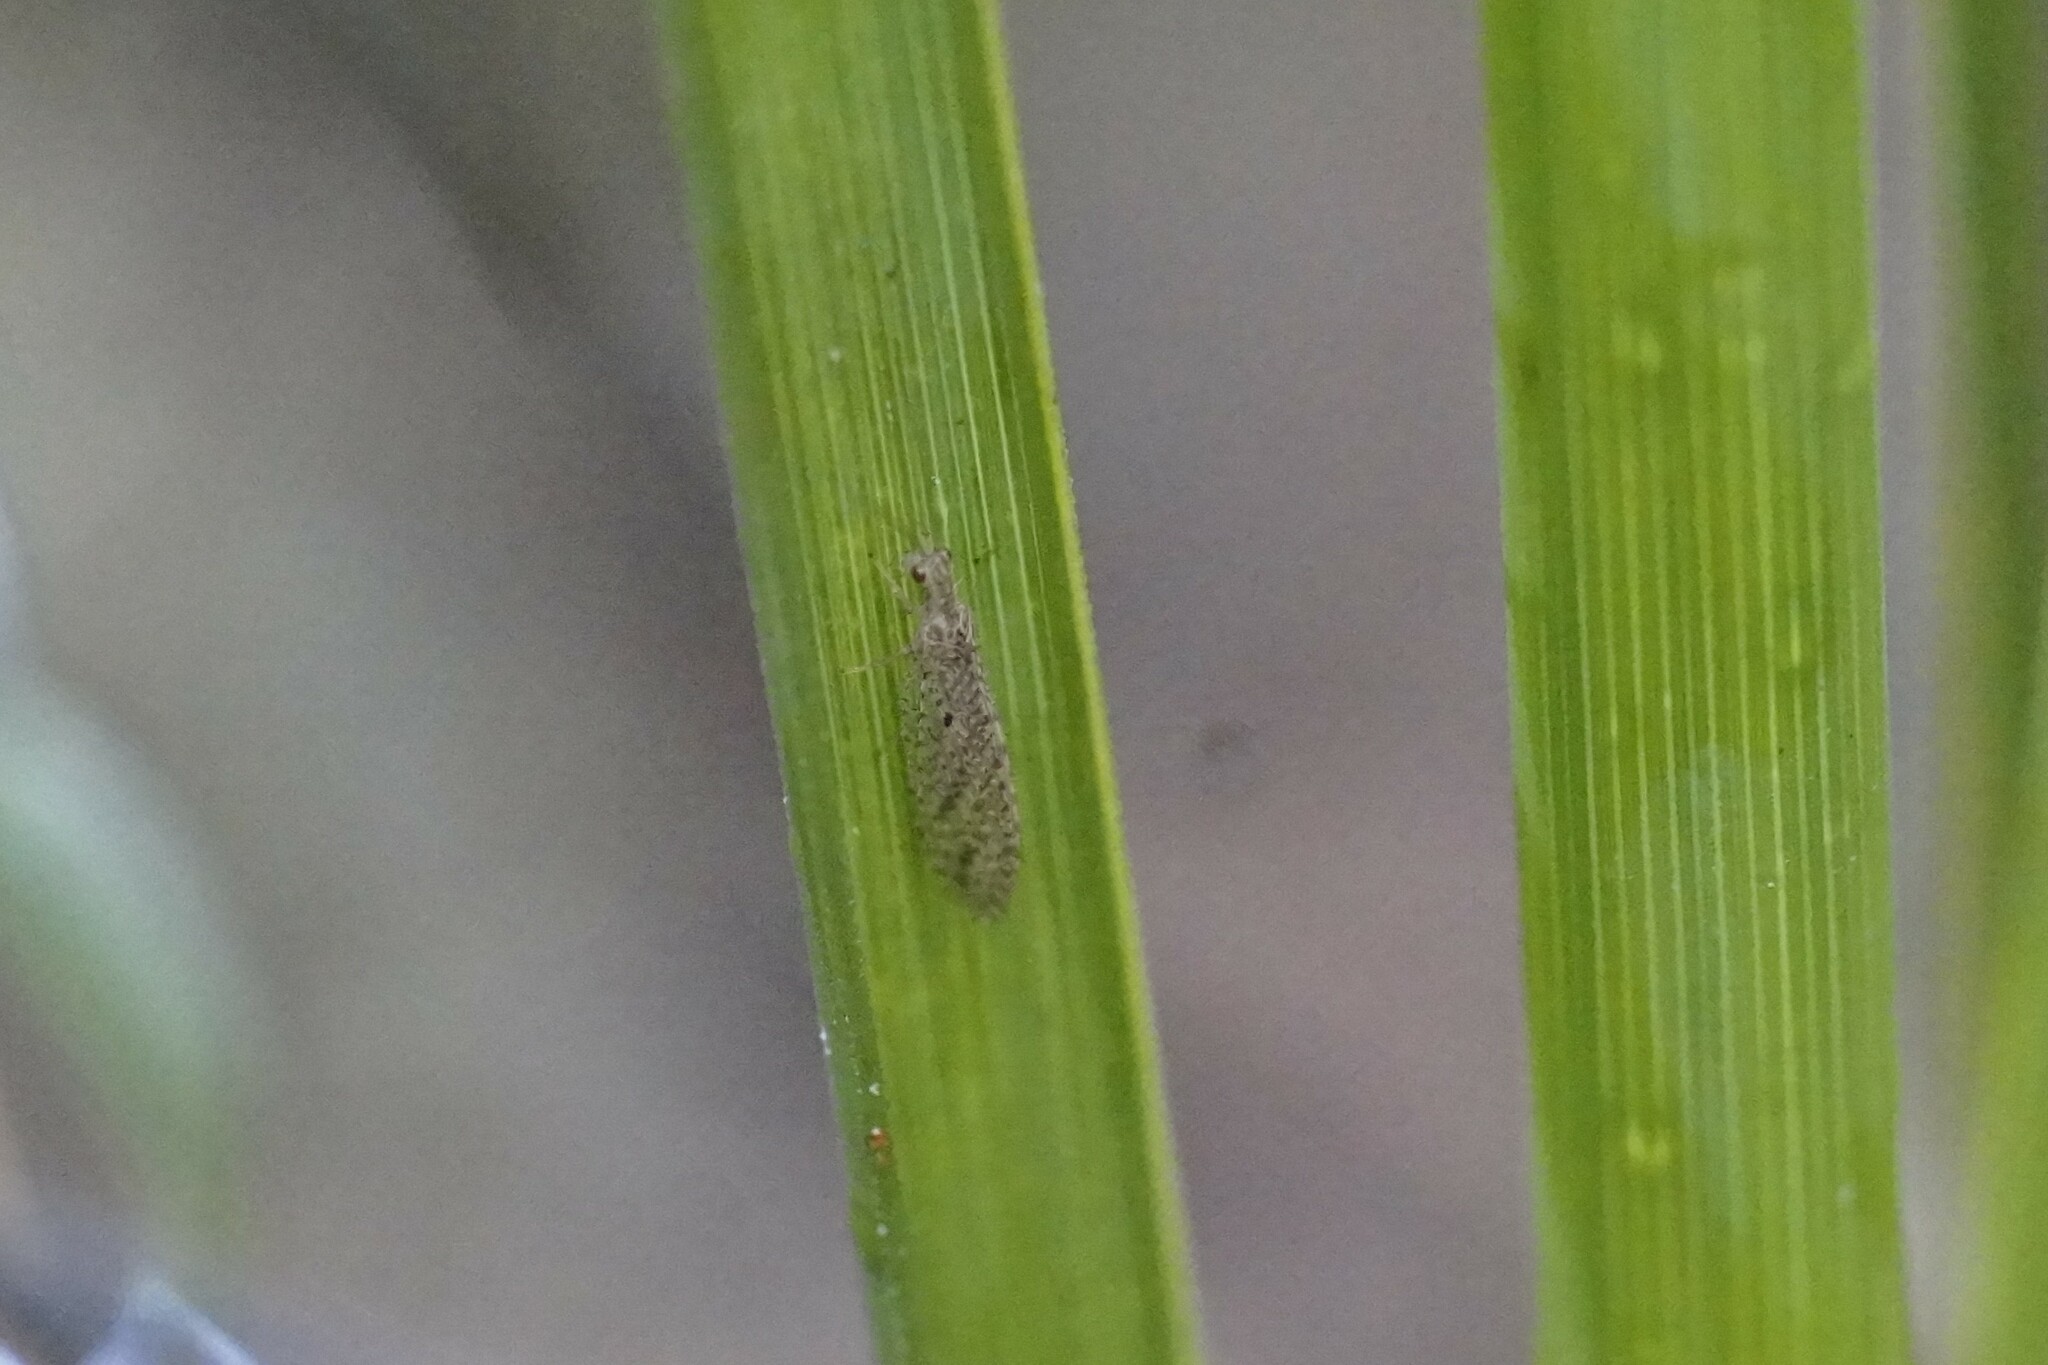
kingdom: Animalia
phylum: Arthropoda
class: Insecta
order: Neuroptera
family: Hemerobiidae
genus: Micromus
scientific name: Micromus tasmaniae
